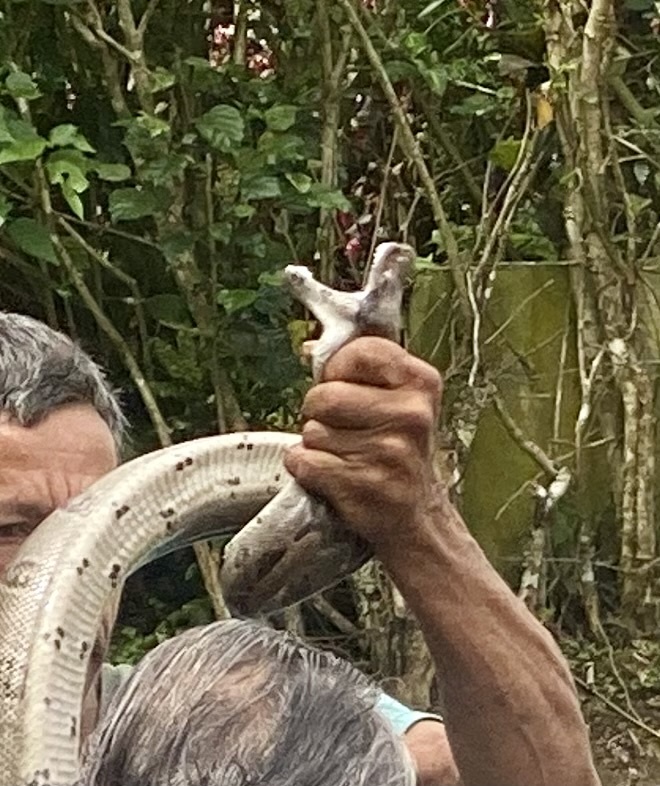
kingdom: Animalia
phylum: Chordata
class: Squamata
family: Boidae
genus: Boa
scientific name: Boa imperator
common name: Central american boa
